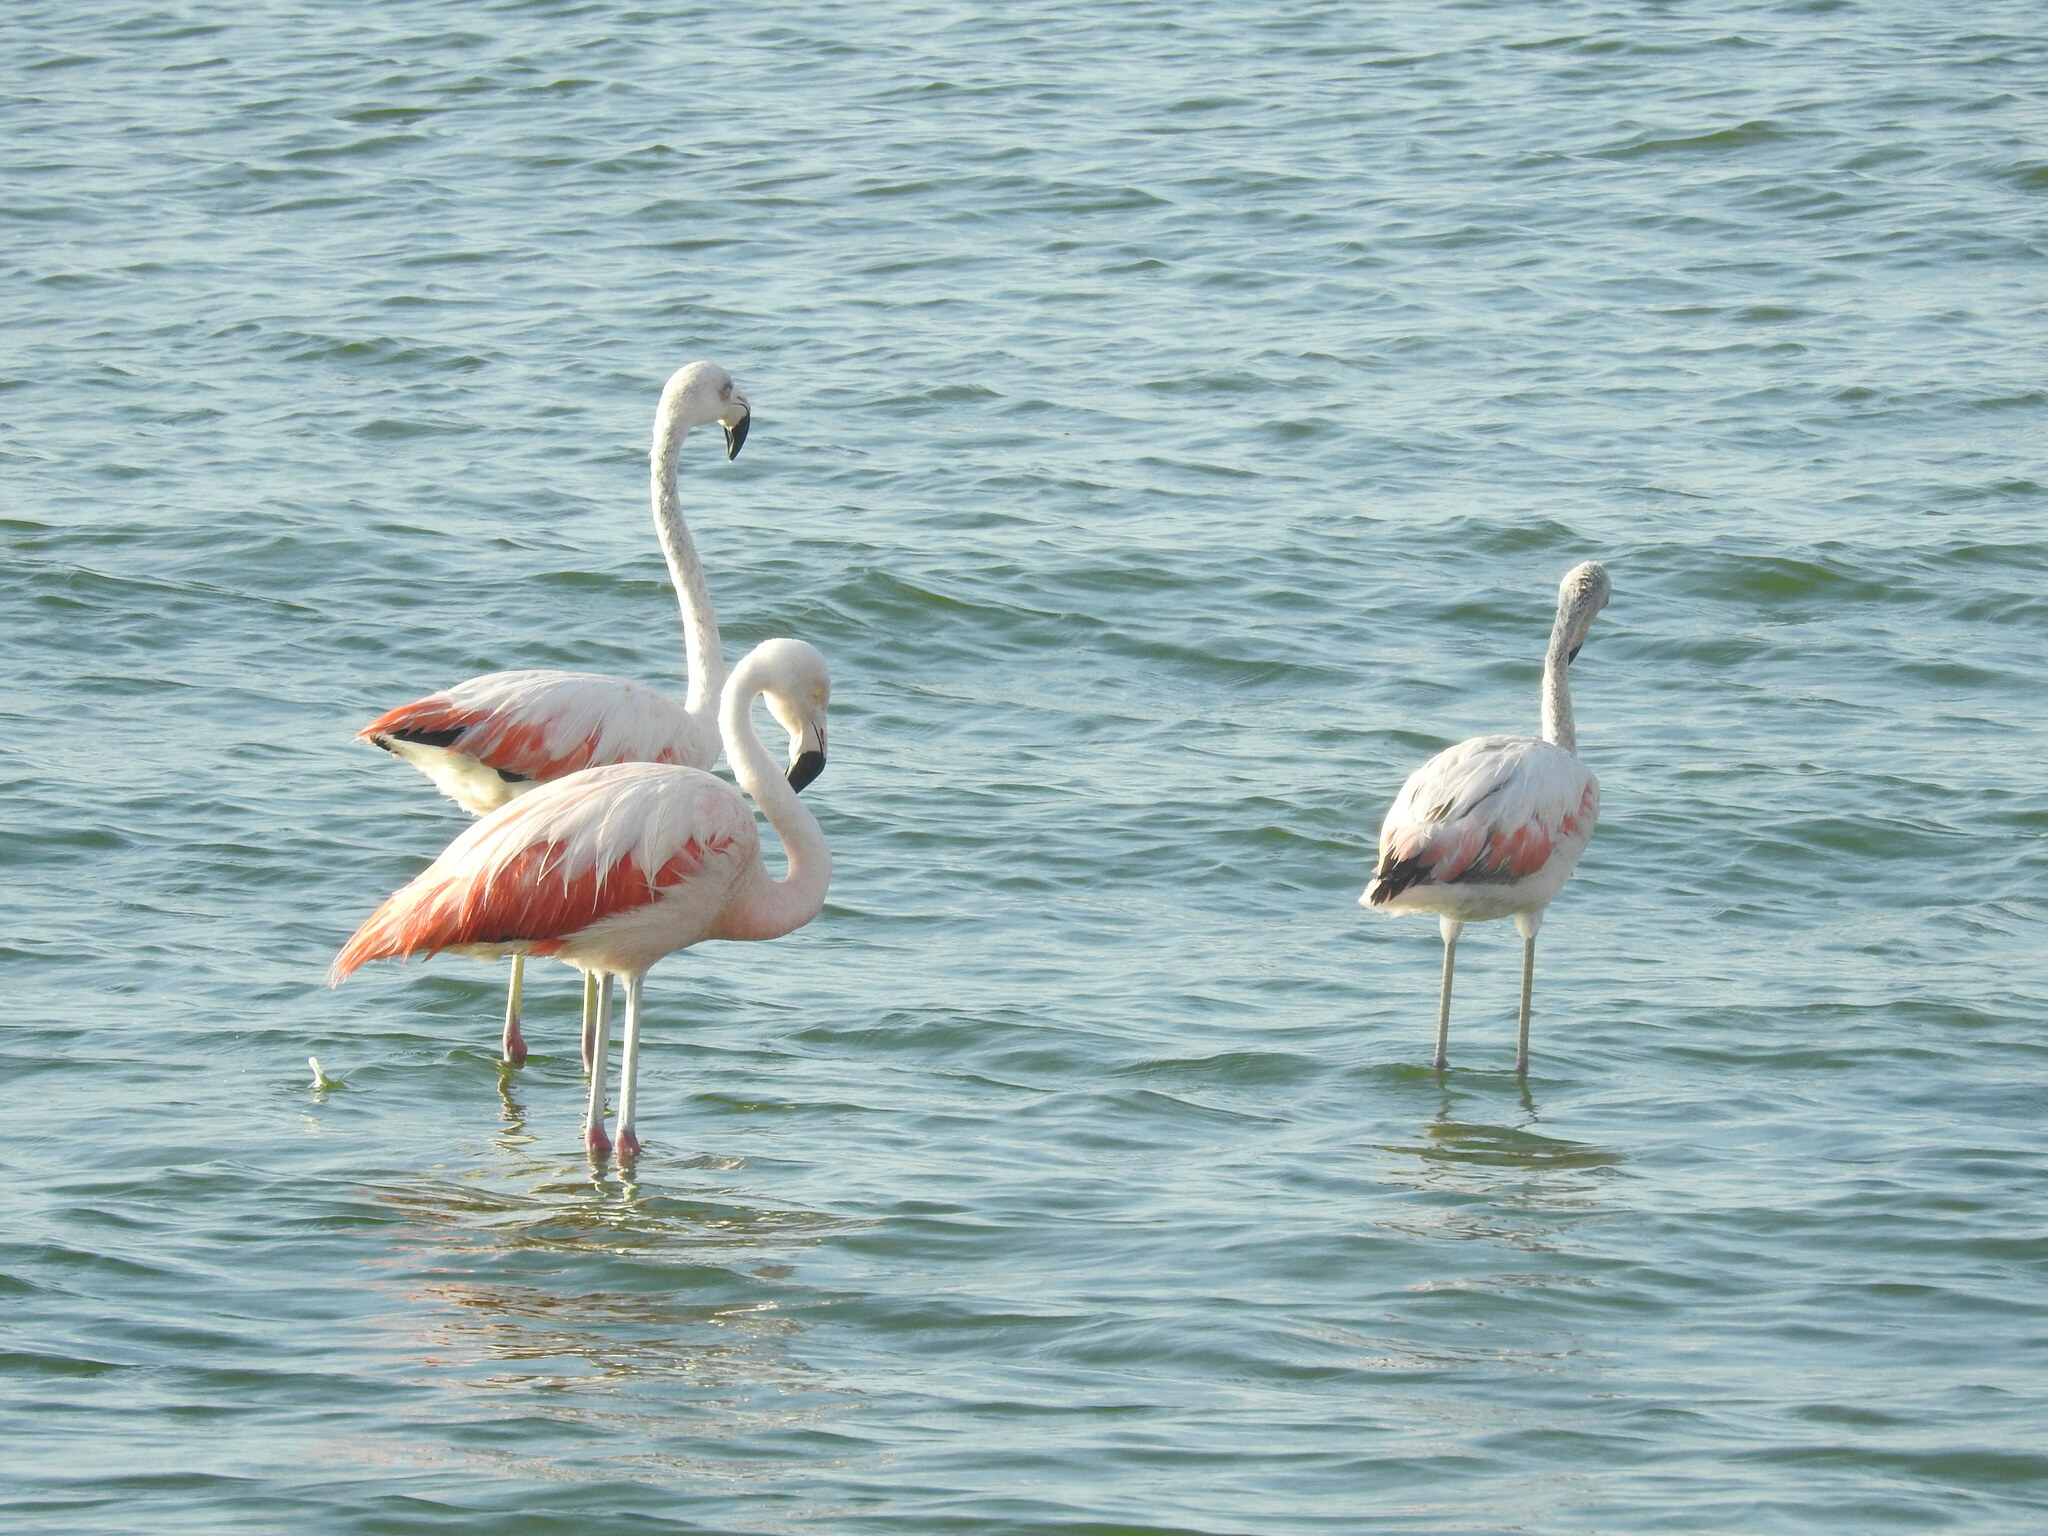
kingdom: Animalia
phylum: Chordata
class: Aves
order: Phoenicopteriformes
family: Phoenicopteridae
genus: Phoenicopterus
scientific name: Phoenicopterus chilensis
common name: Chilean flamingo
